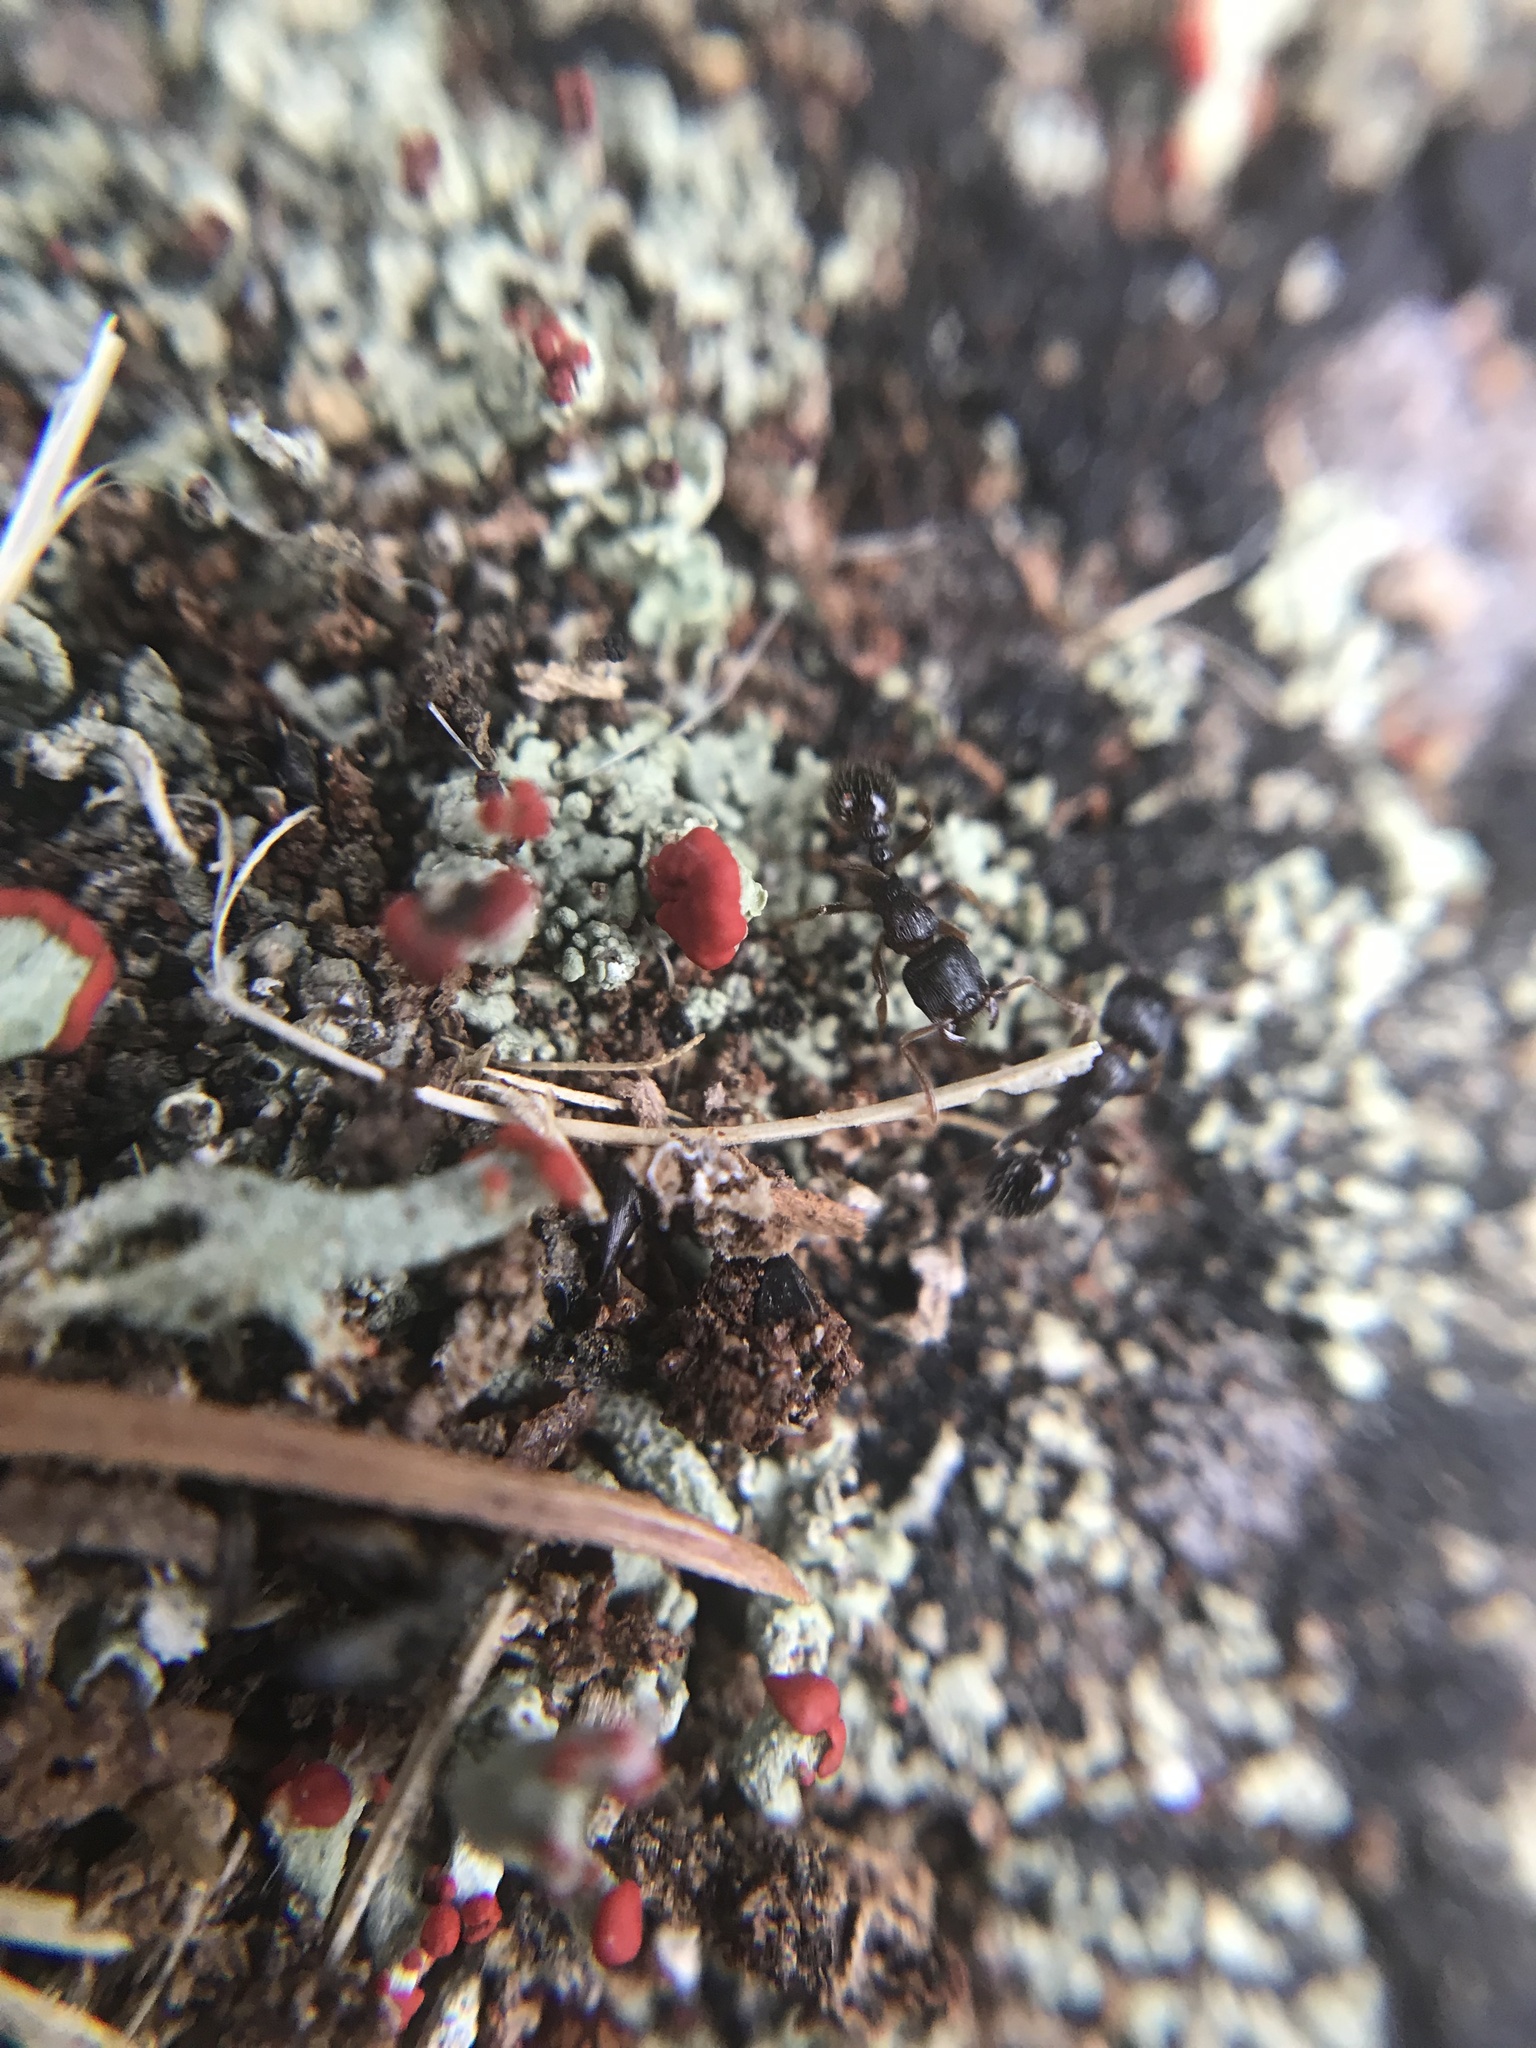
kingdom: Animalia
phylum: Arthropoda
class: Insecta
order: Hymenoptera
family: Formicidae
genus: Tetramorium
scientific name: Tetramorium immigrans
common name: Pavement ant
